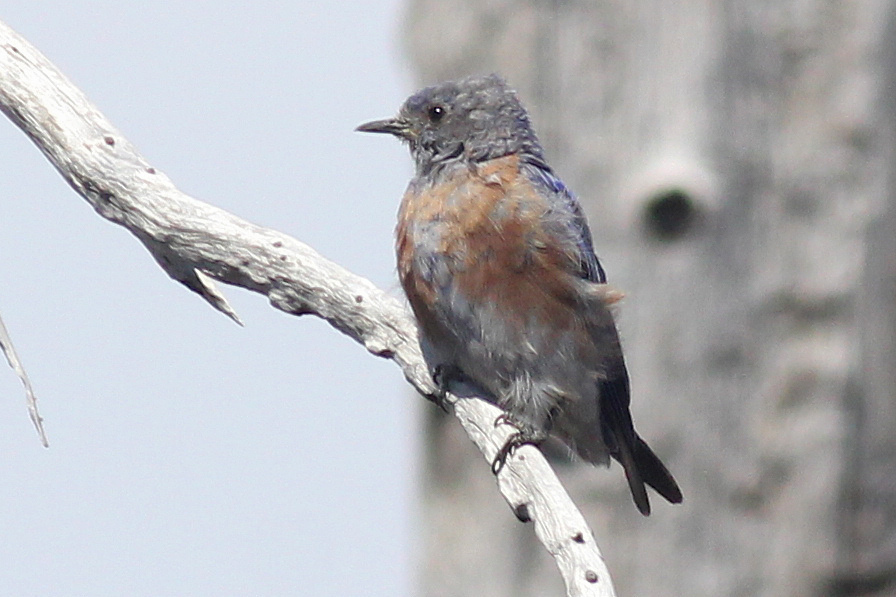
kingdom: Animalia
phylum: Chordata
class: Aves
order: Passeriformes
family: Turdidae
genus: Sialia
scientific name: Sialia mexicana
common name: Western bluebird
